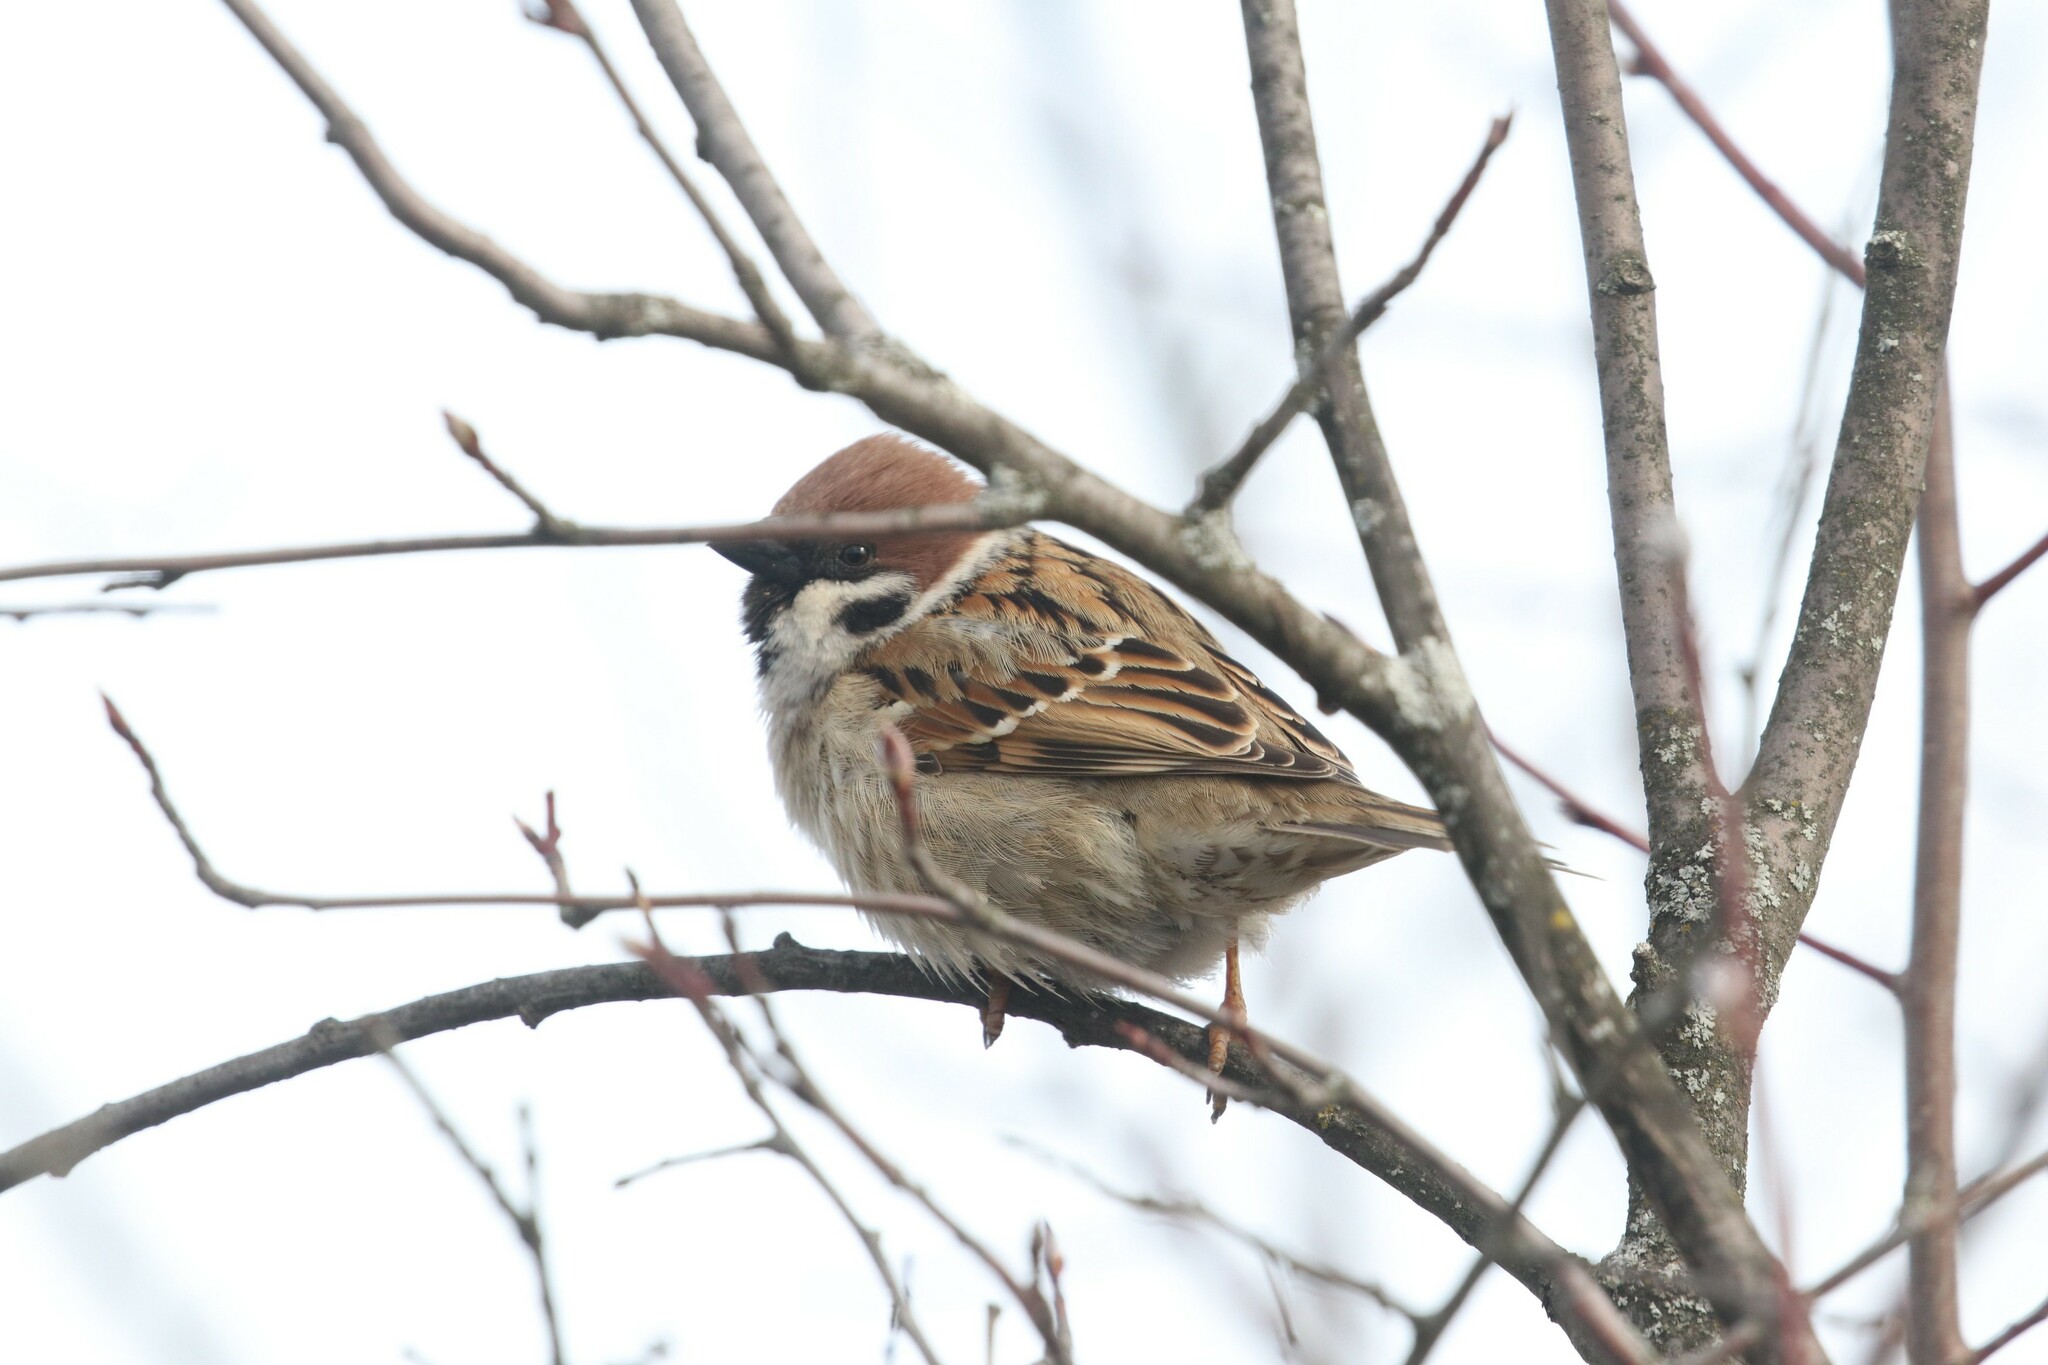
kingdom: Animalia
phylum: Chordata
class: Aves
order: Passeriformes
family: Passeridae
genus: Passer
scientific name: Passer montanus
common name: Eurasian tree sparrow
